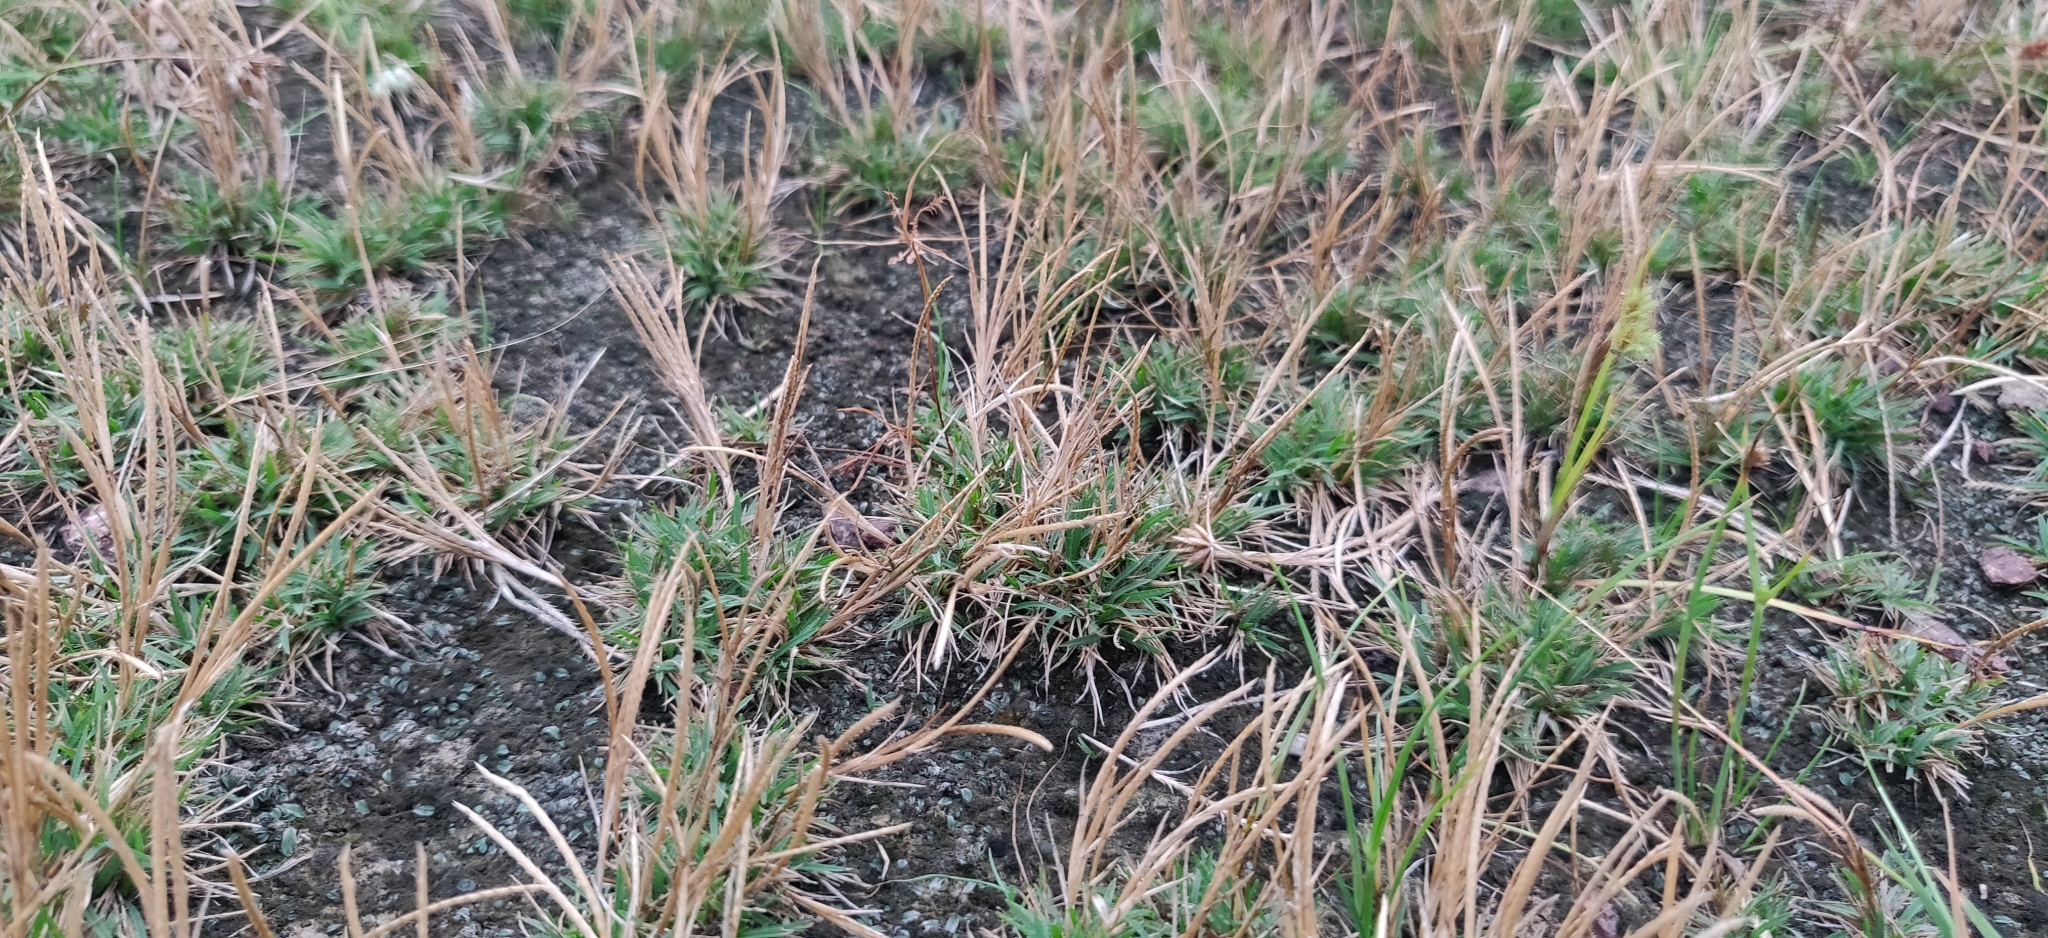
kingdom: Plantae
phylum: Tracheophyta
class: Liliopsida
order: Poales
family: Poaceae
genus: Oropetium
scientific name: Oropetium thomaeum
